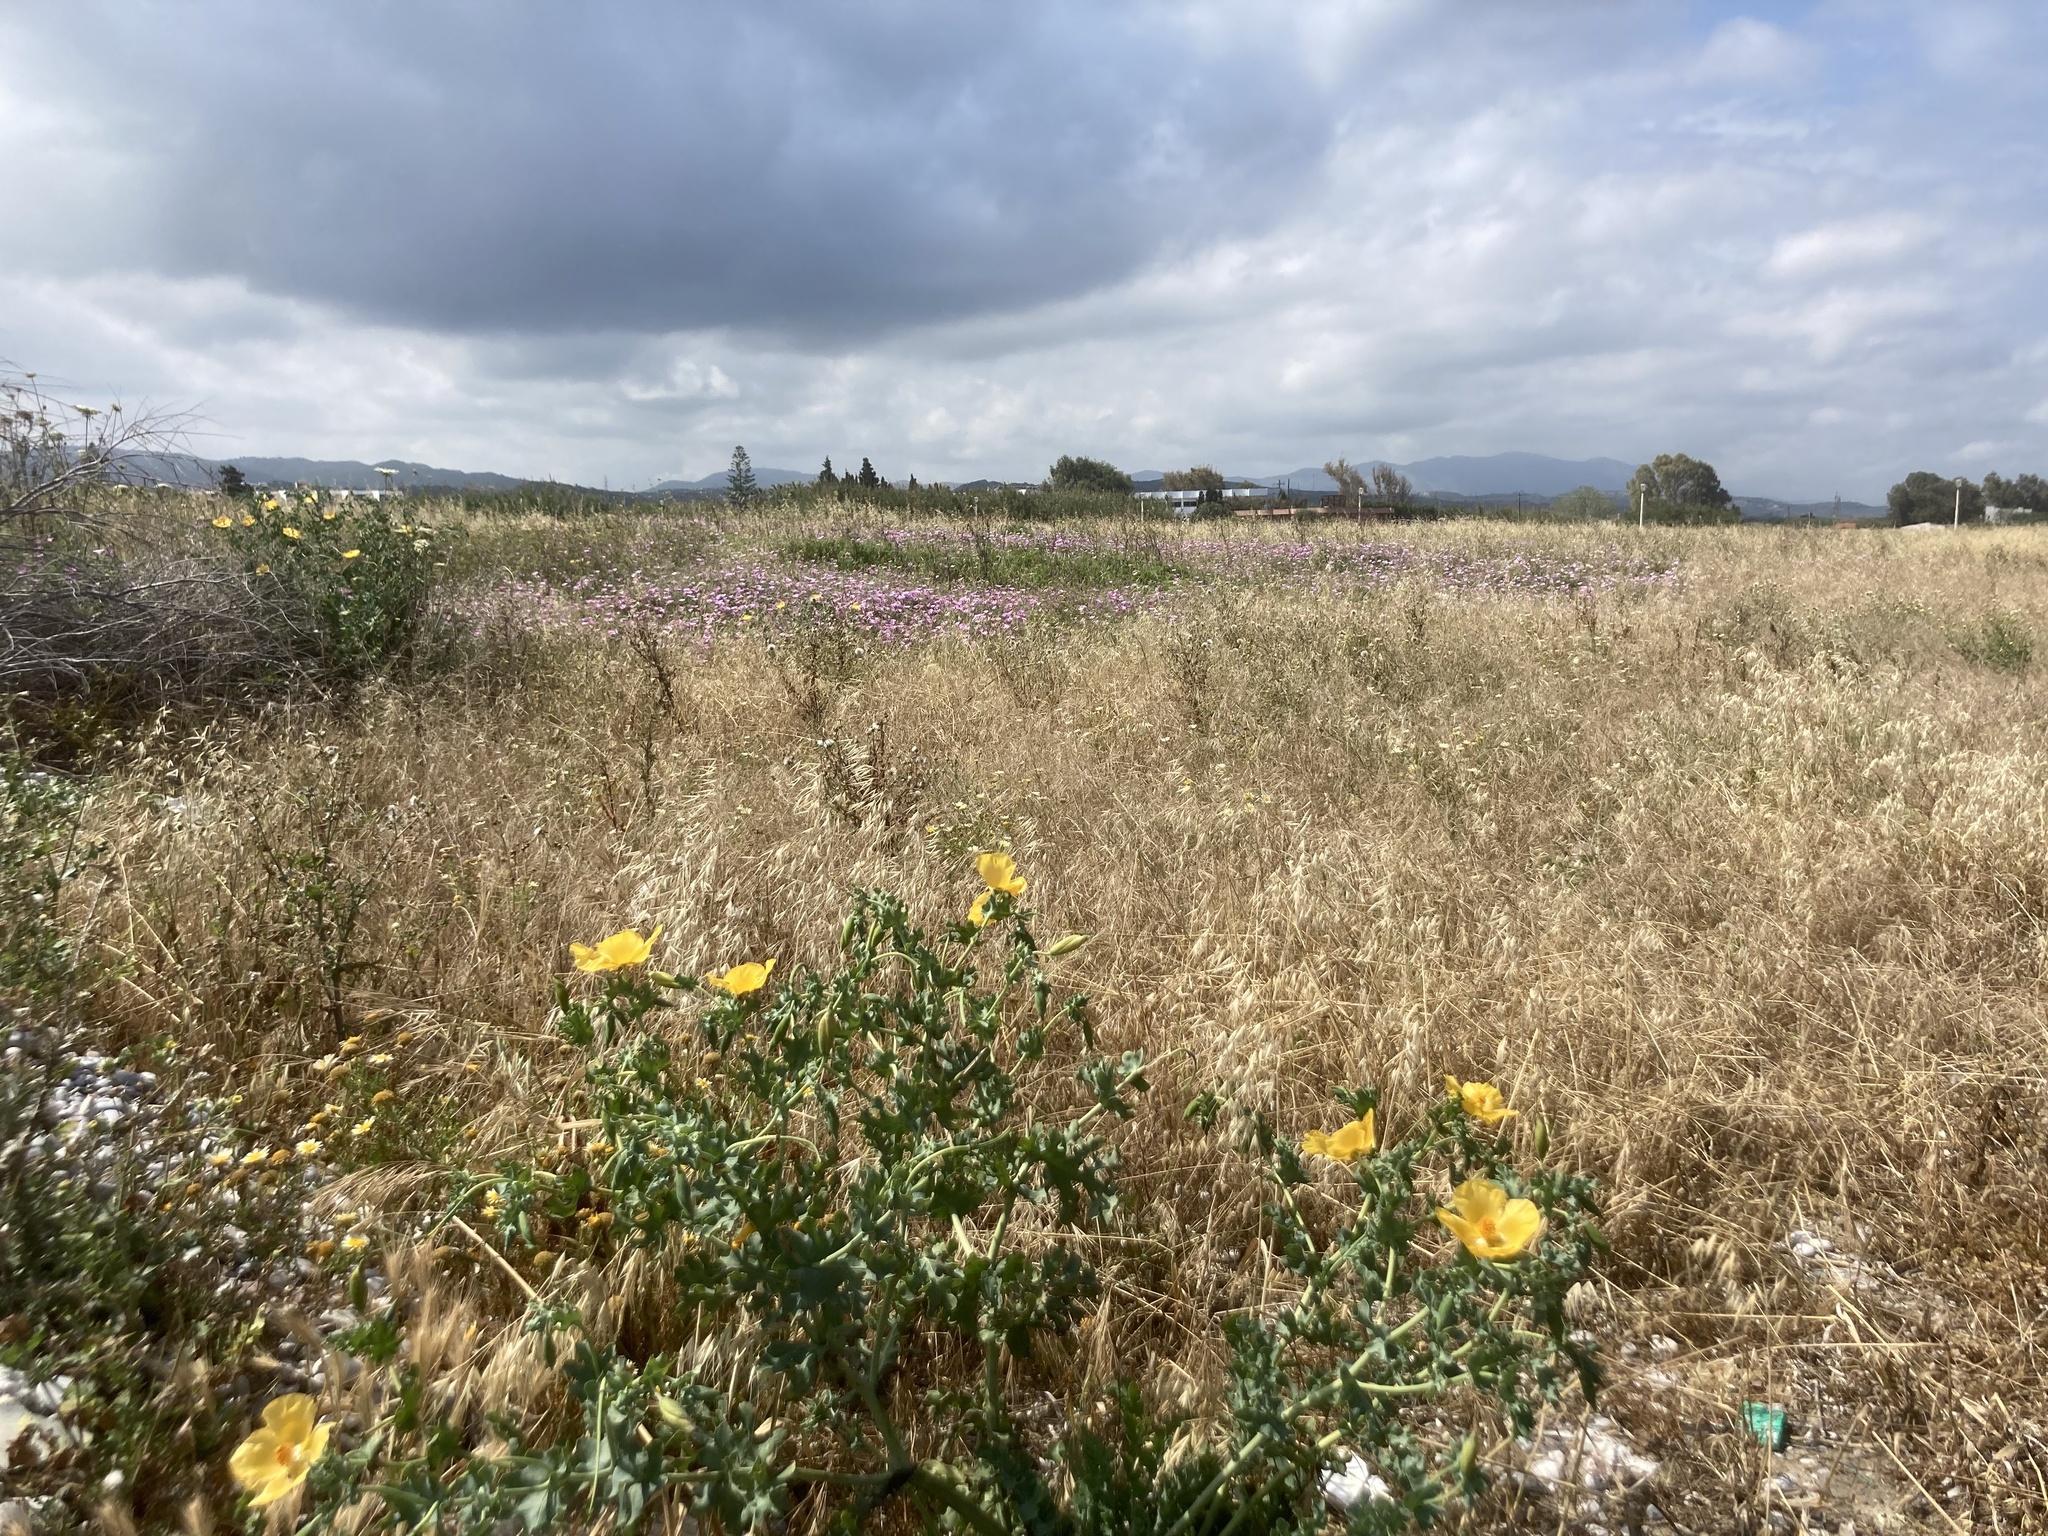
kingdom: Plantae
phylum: Tracheophyta
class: Magnoliopsida
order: Ranunculales
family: Papaveraceae
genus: Glaucium
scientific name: Glaucium flavum
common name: Yellow horned-poppy
